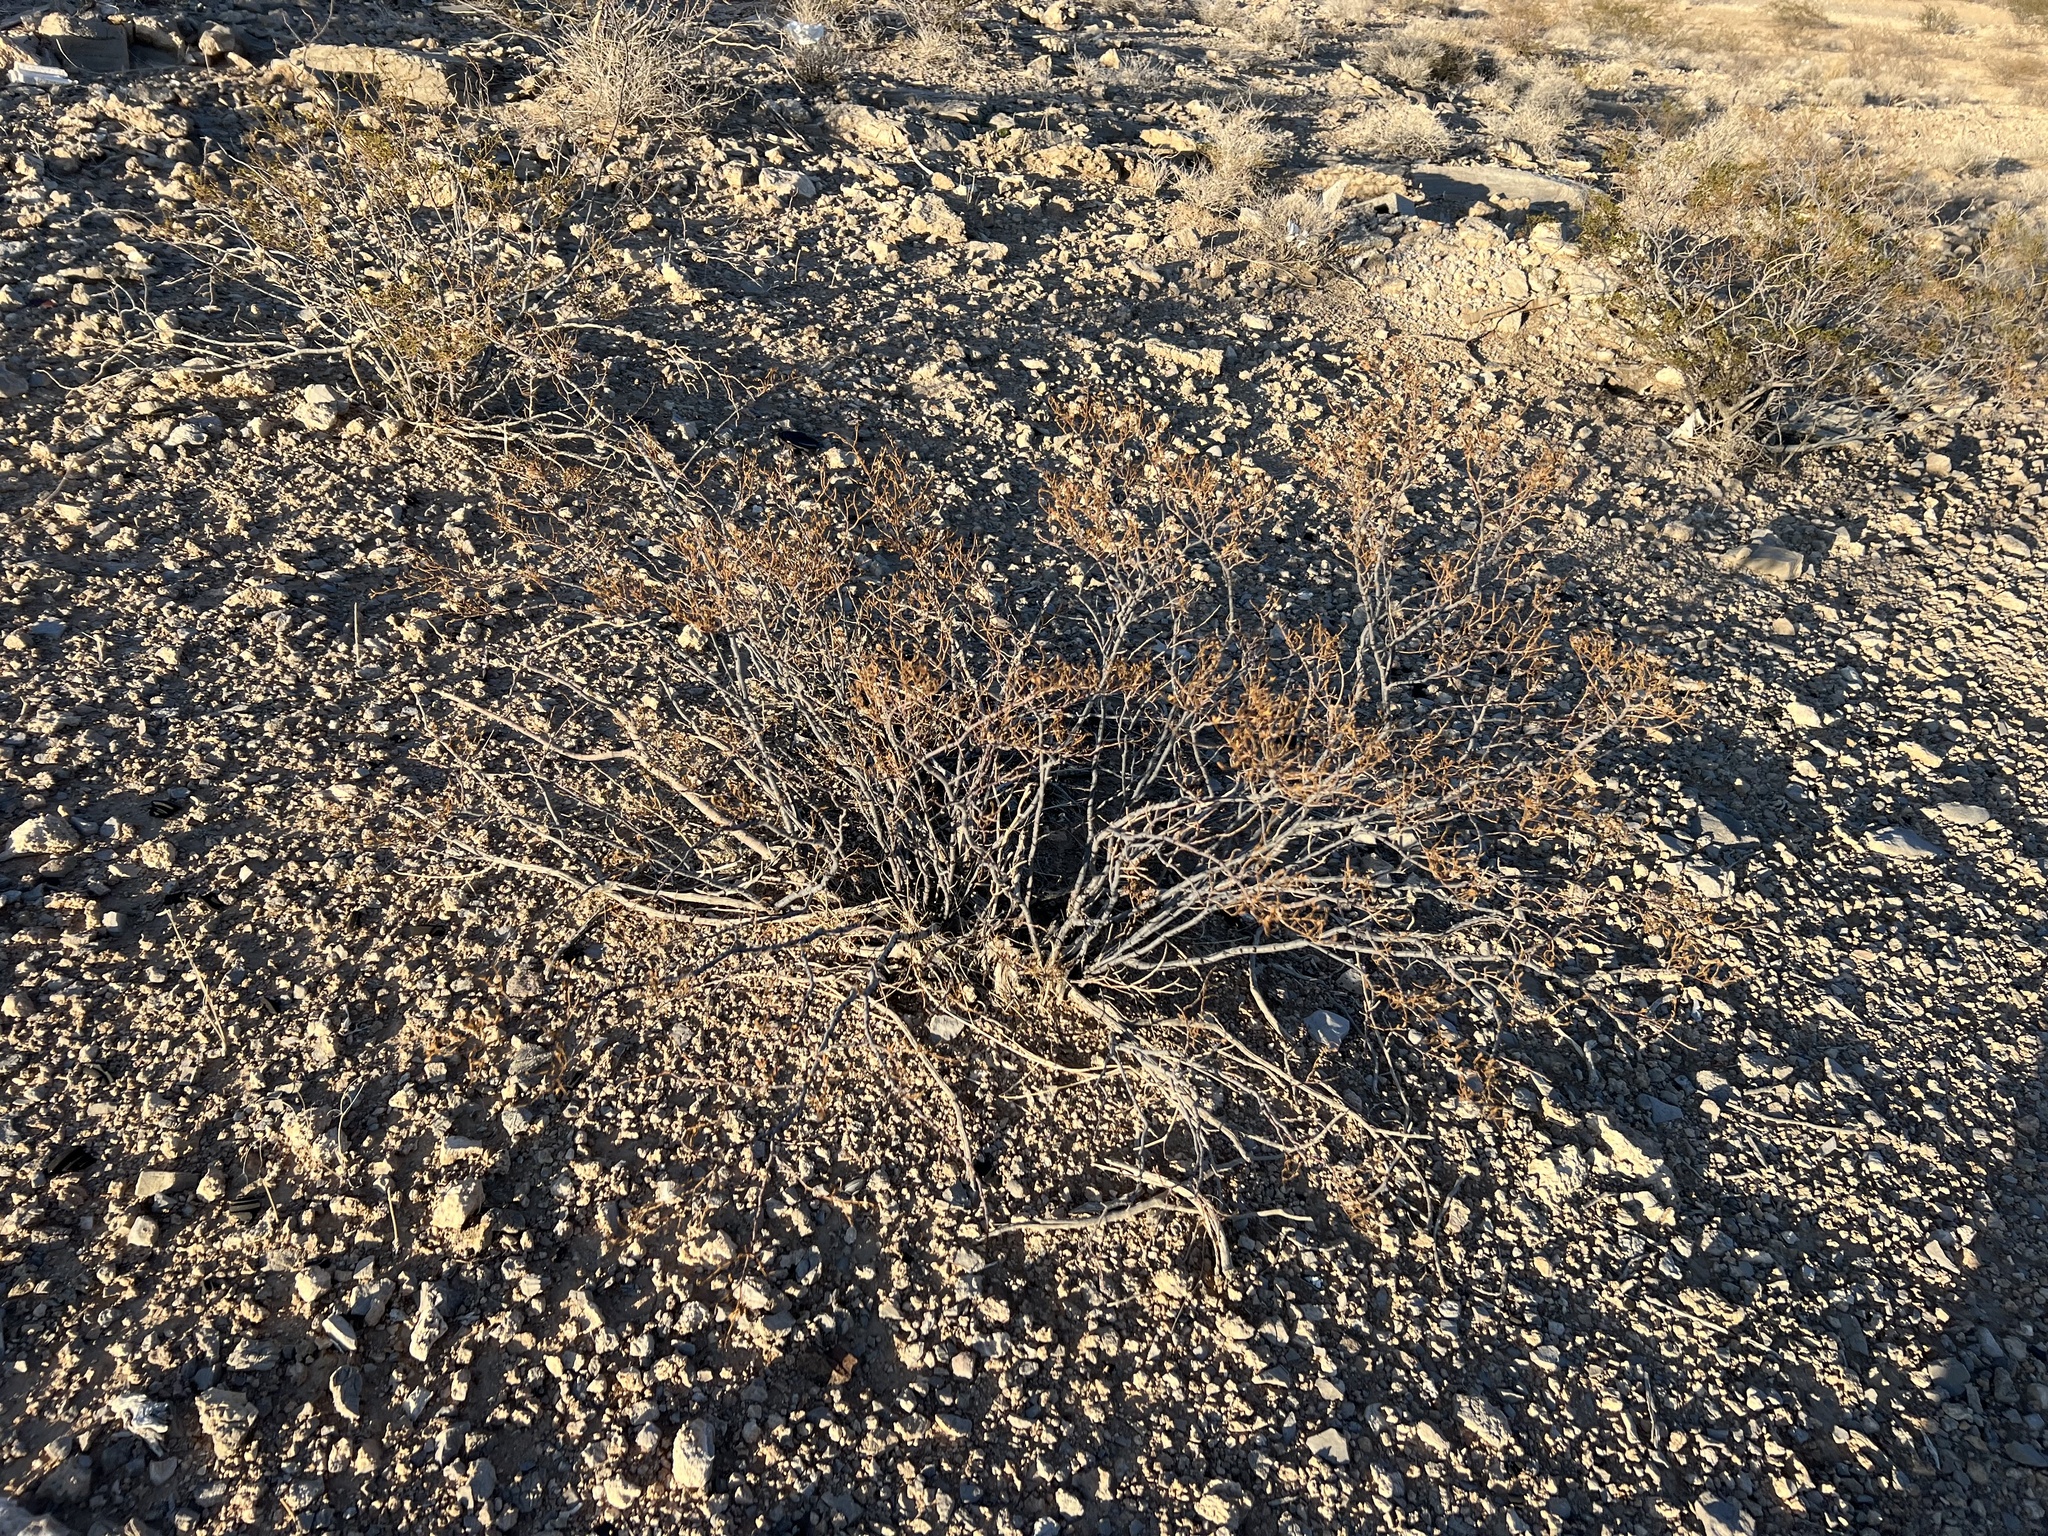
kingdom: Plantae
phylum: Tracheophyta
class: Magnoliopsida
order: Zygophyllales
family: Zygophyllaceae
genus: Larrea
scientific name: Larrea tridentata
